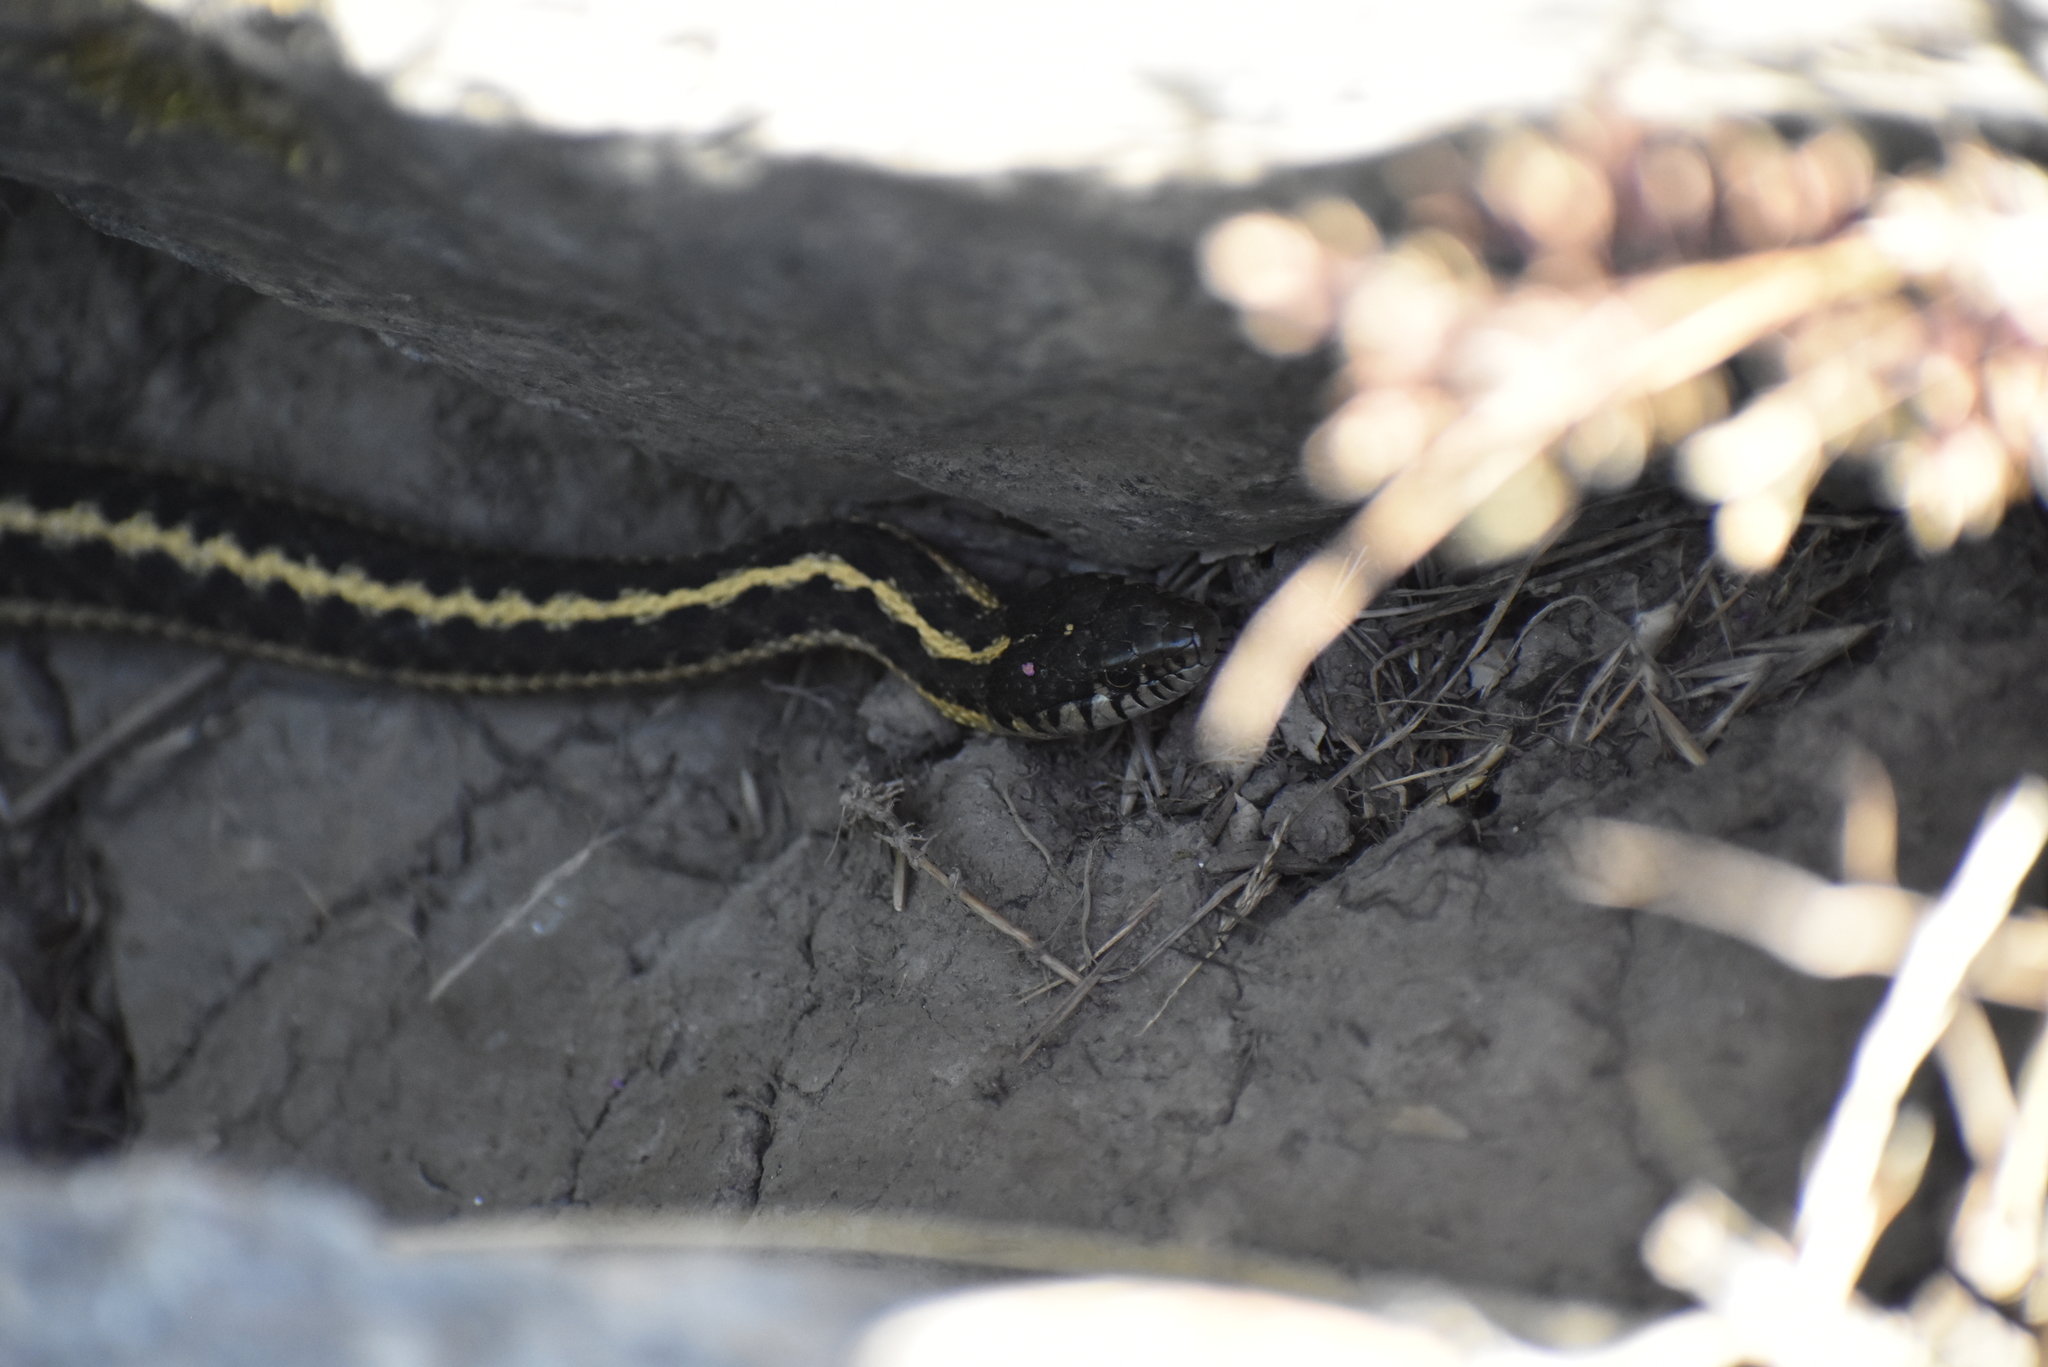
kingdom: Animalia
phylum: Chordata
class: Squamata
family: Colubridae
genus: Thamnophis
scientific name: Thamnophis elegans
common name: Western terrestrial garter snake
